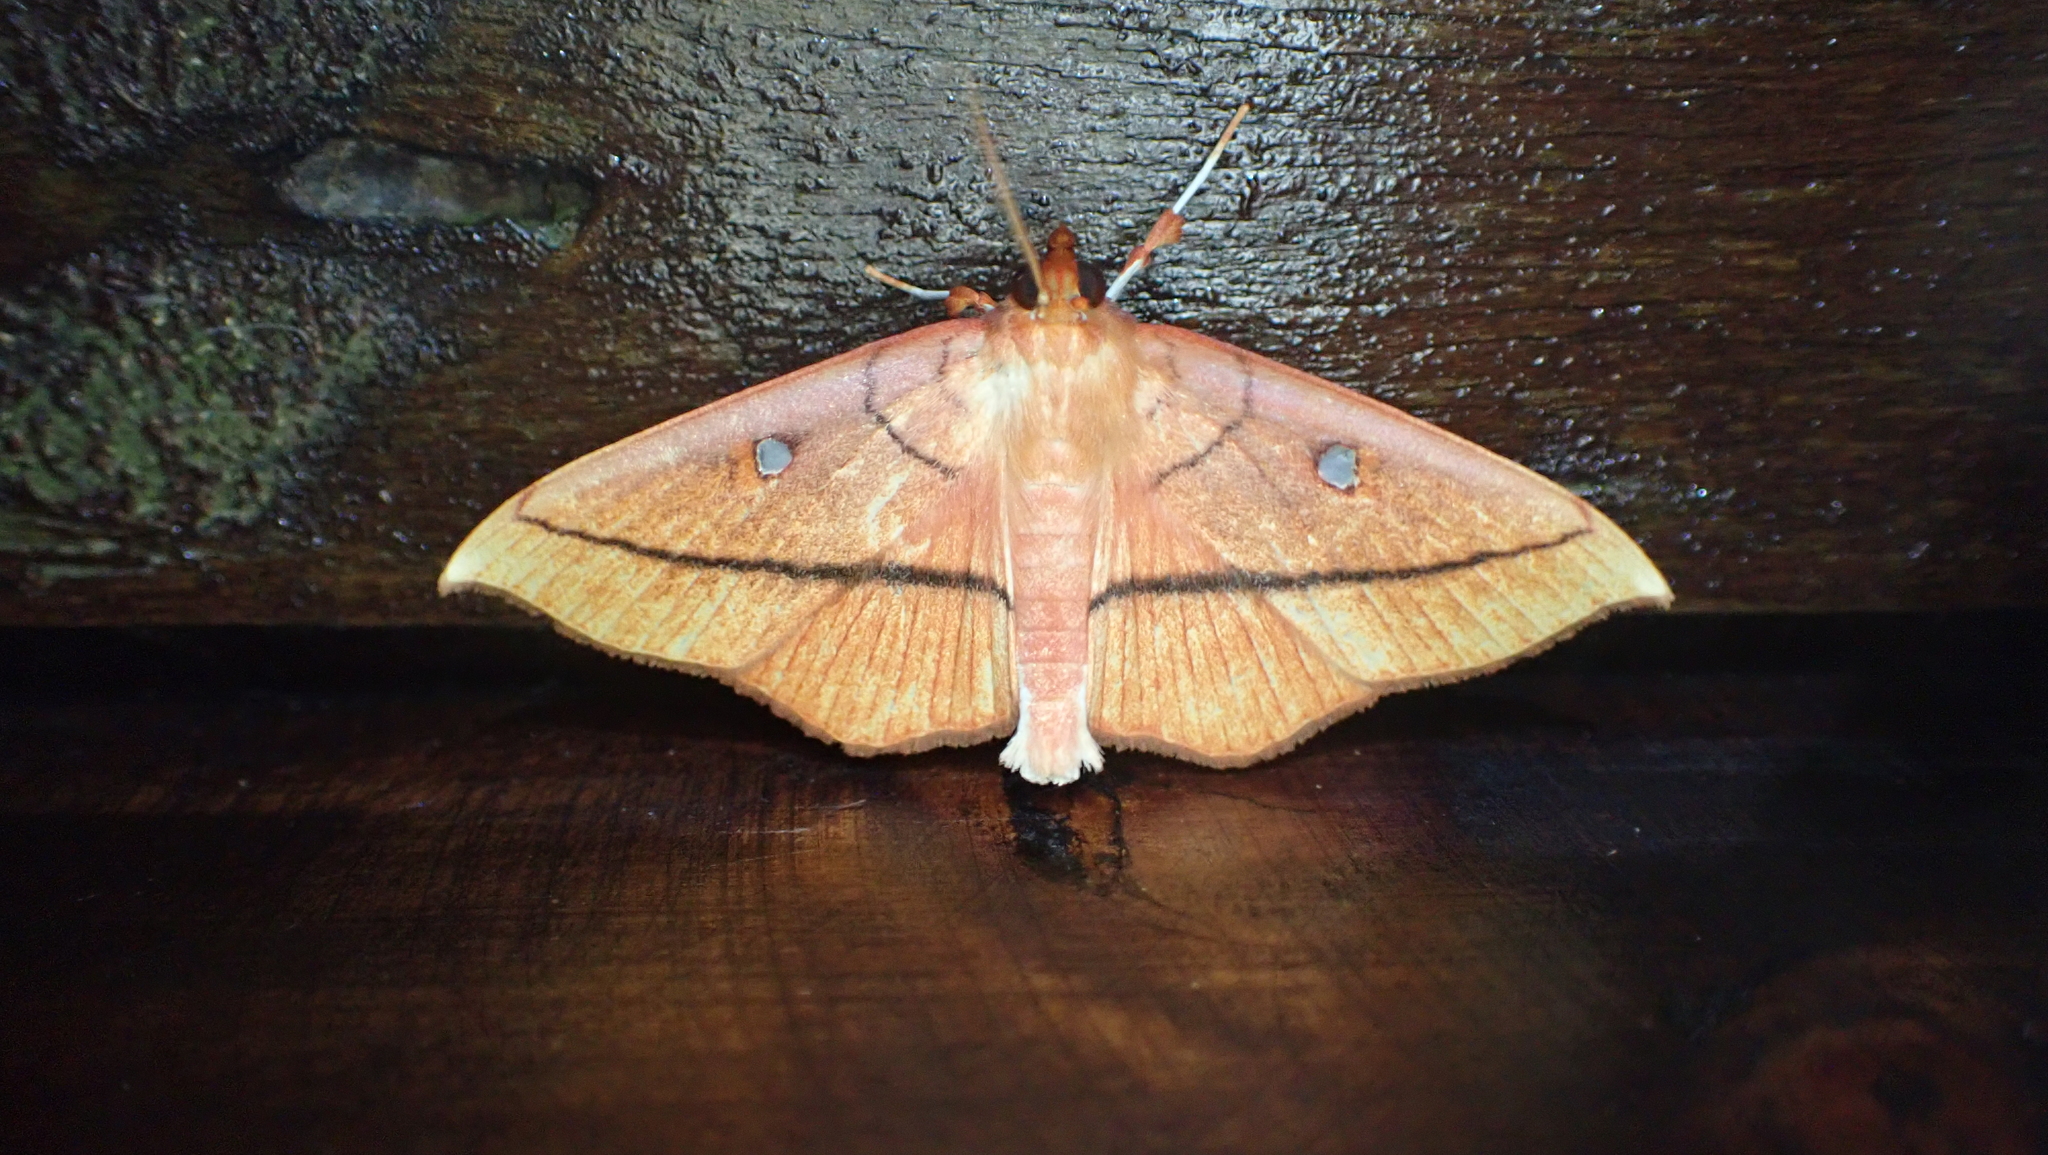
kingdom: Animalia
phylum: Arthropoda
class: Insecta
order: Lepidoptera
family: Crambidae
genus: Midila
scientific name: Midila daphne
